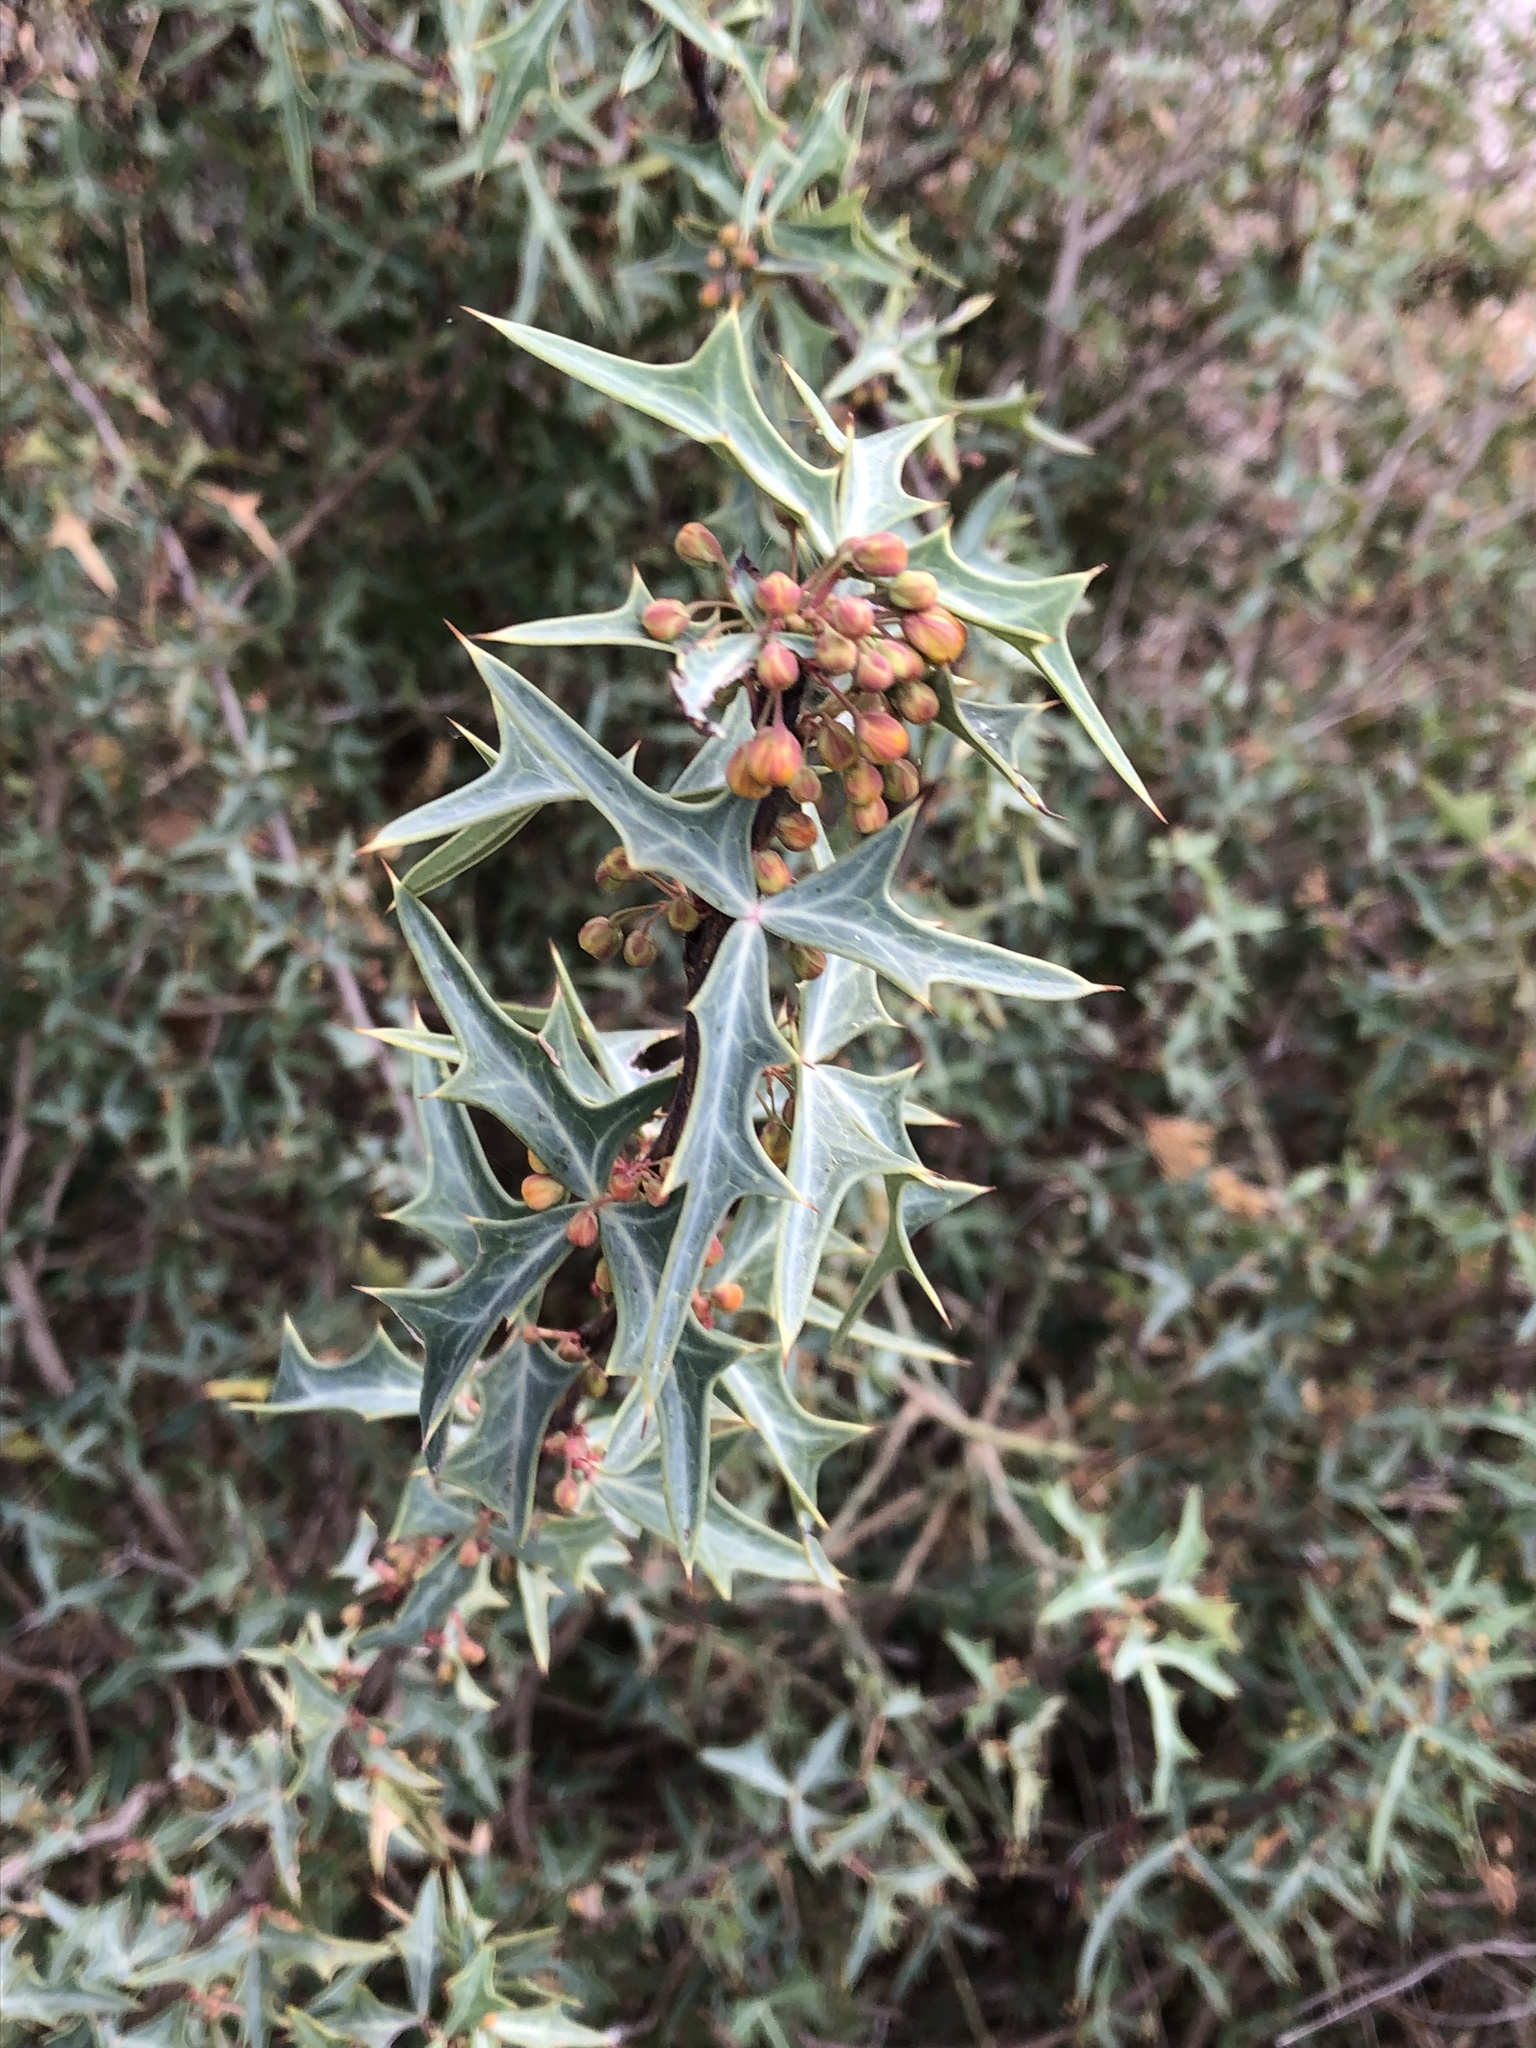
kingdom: Plantae
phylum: Tracheophyta
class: Magnoliopsida
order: Ranunculales
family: Berberidaceae
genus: Alloberberis
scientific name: Alloberberis trifoliolata
